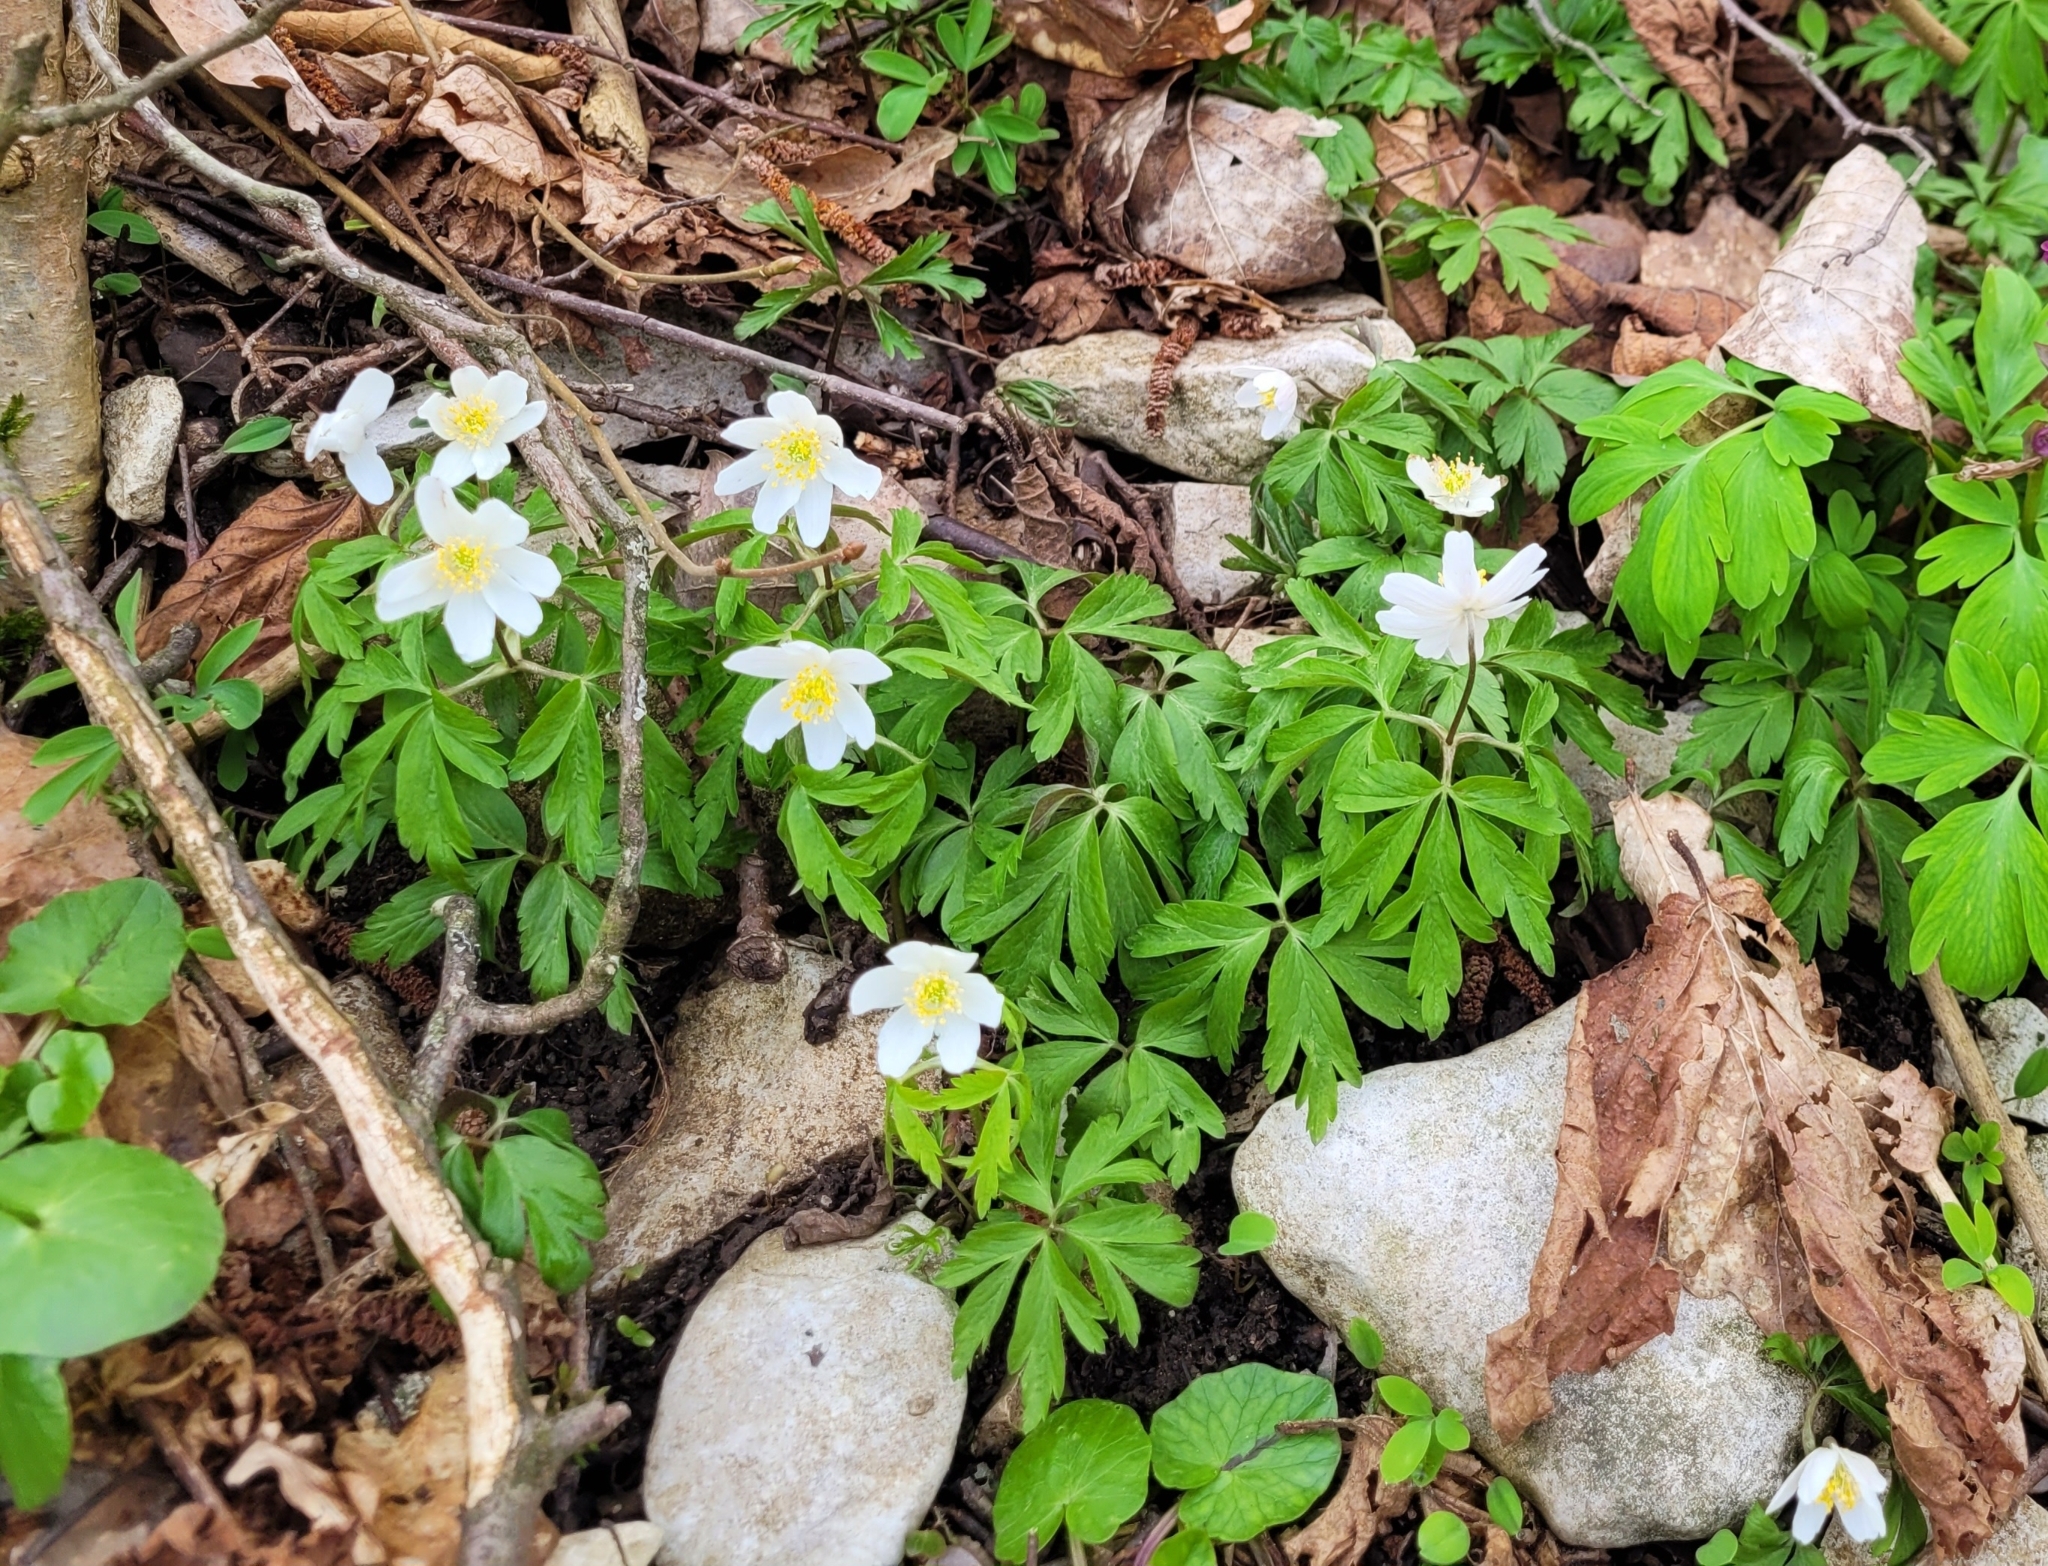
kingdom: Plantae
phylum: Tracheophyta
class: Magnoliopsida
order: Ranunculales
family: Ranunculaceae
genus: Anemone
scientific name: Anemone nemorosa
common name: Wood anemone
